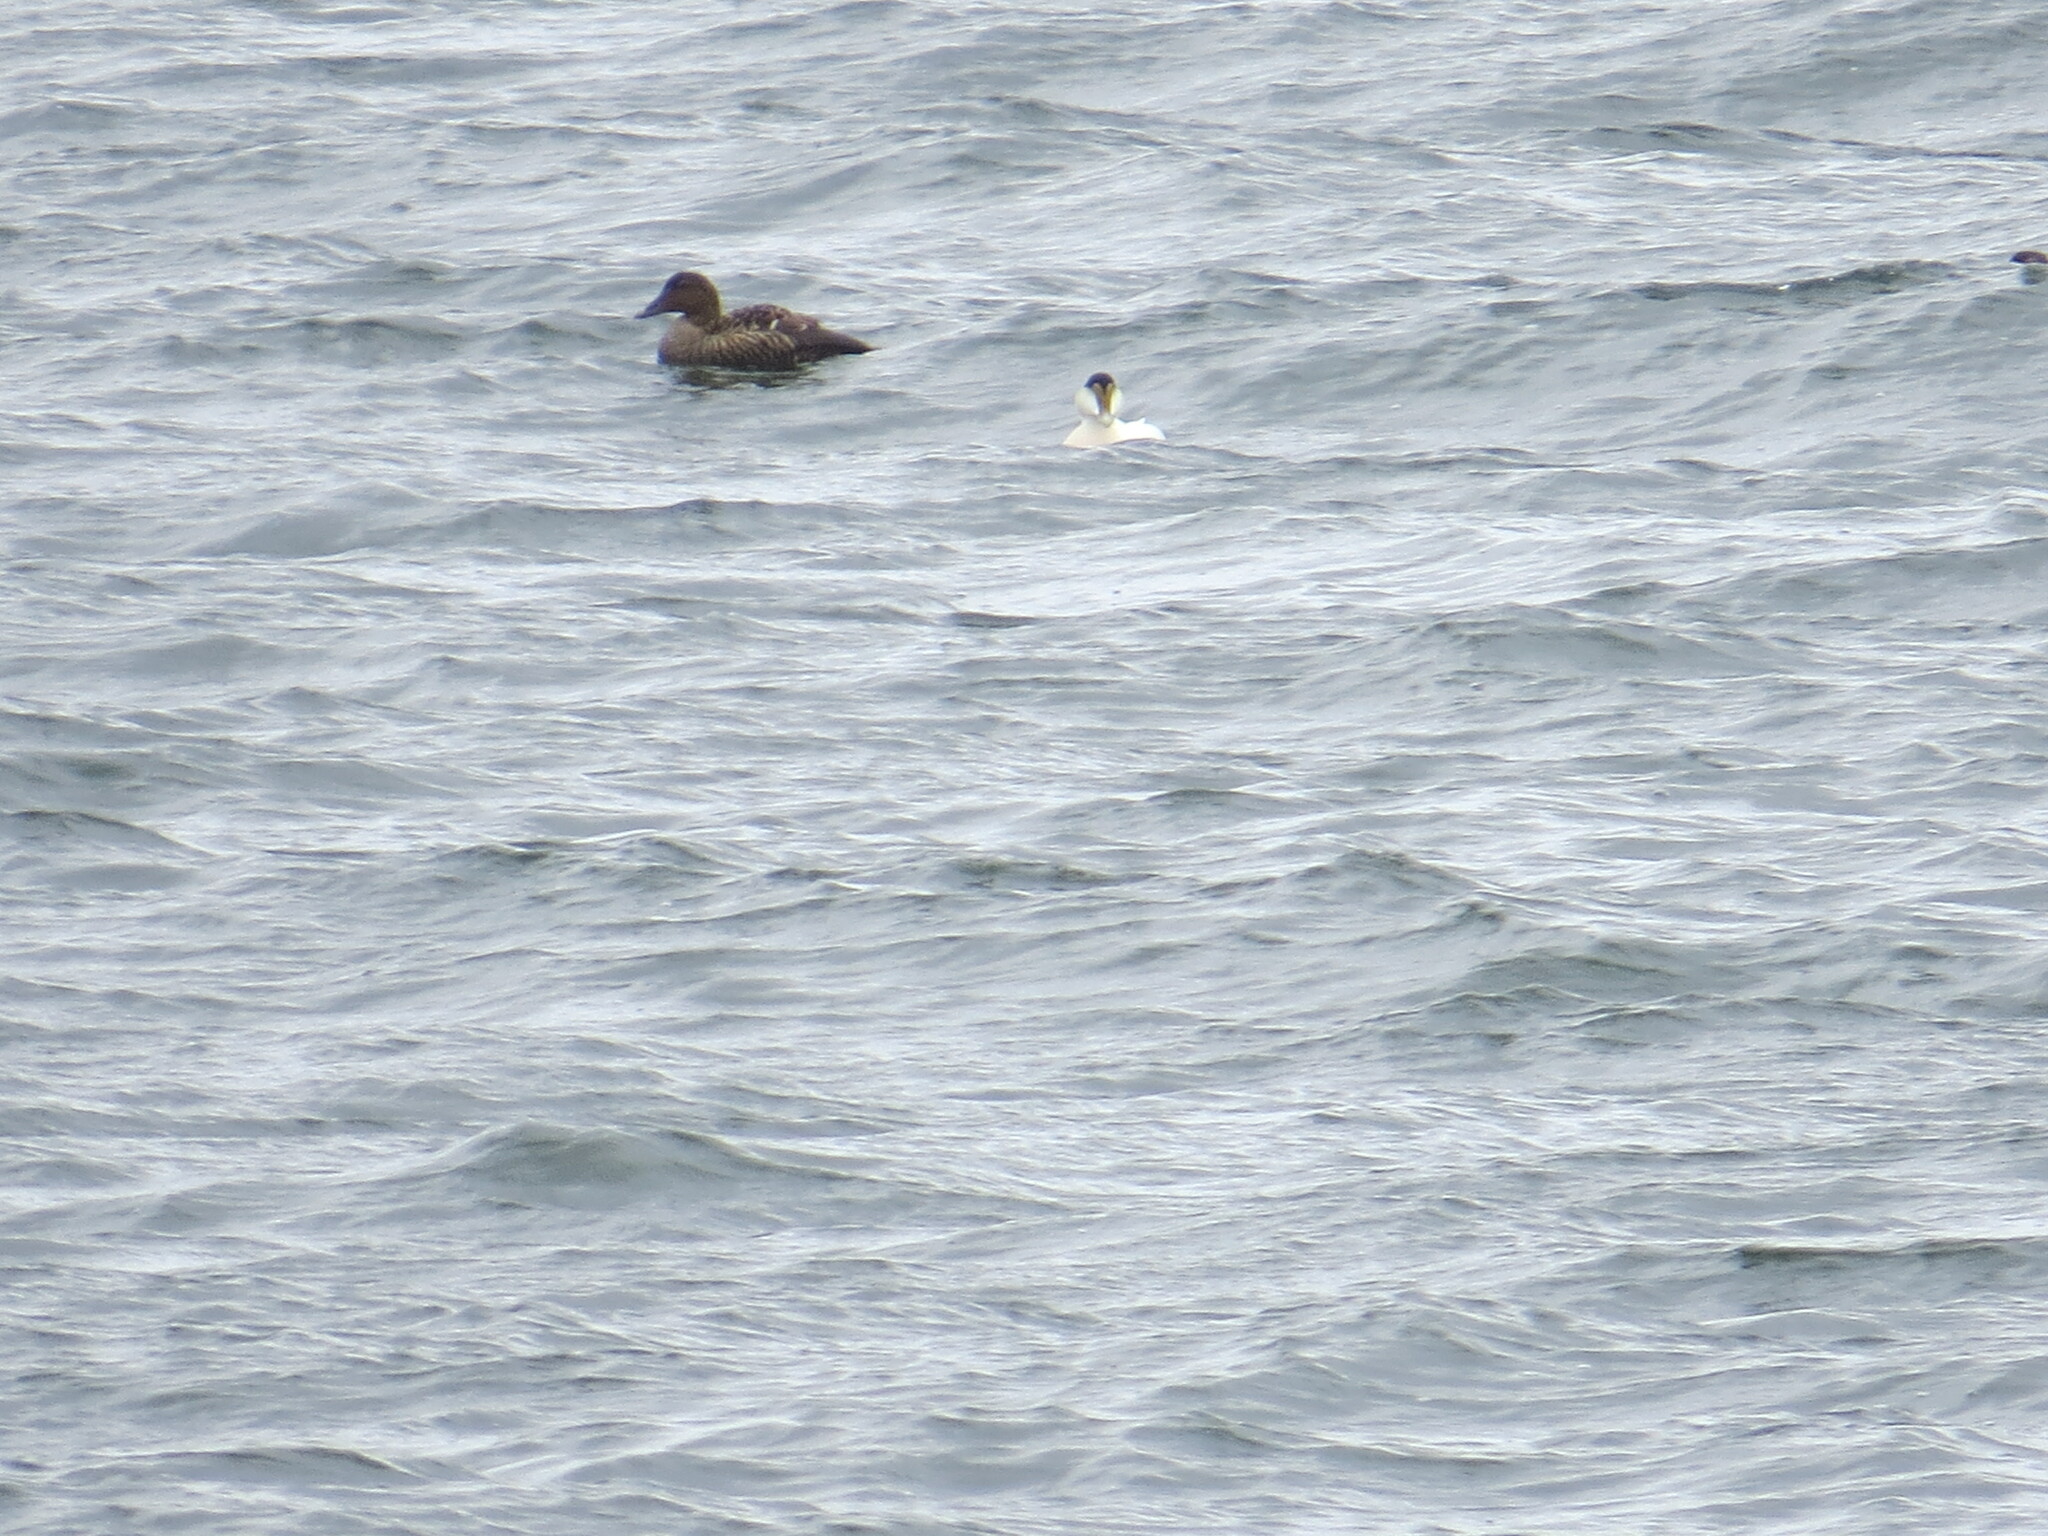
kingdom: Animalia
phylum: Chordata
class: Aves
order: Anseriformes
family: Anatidae
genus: Somateria
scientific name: Somateria mollissima
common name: Common eider
